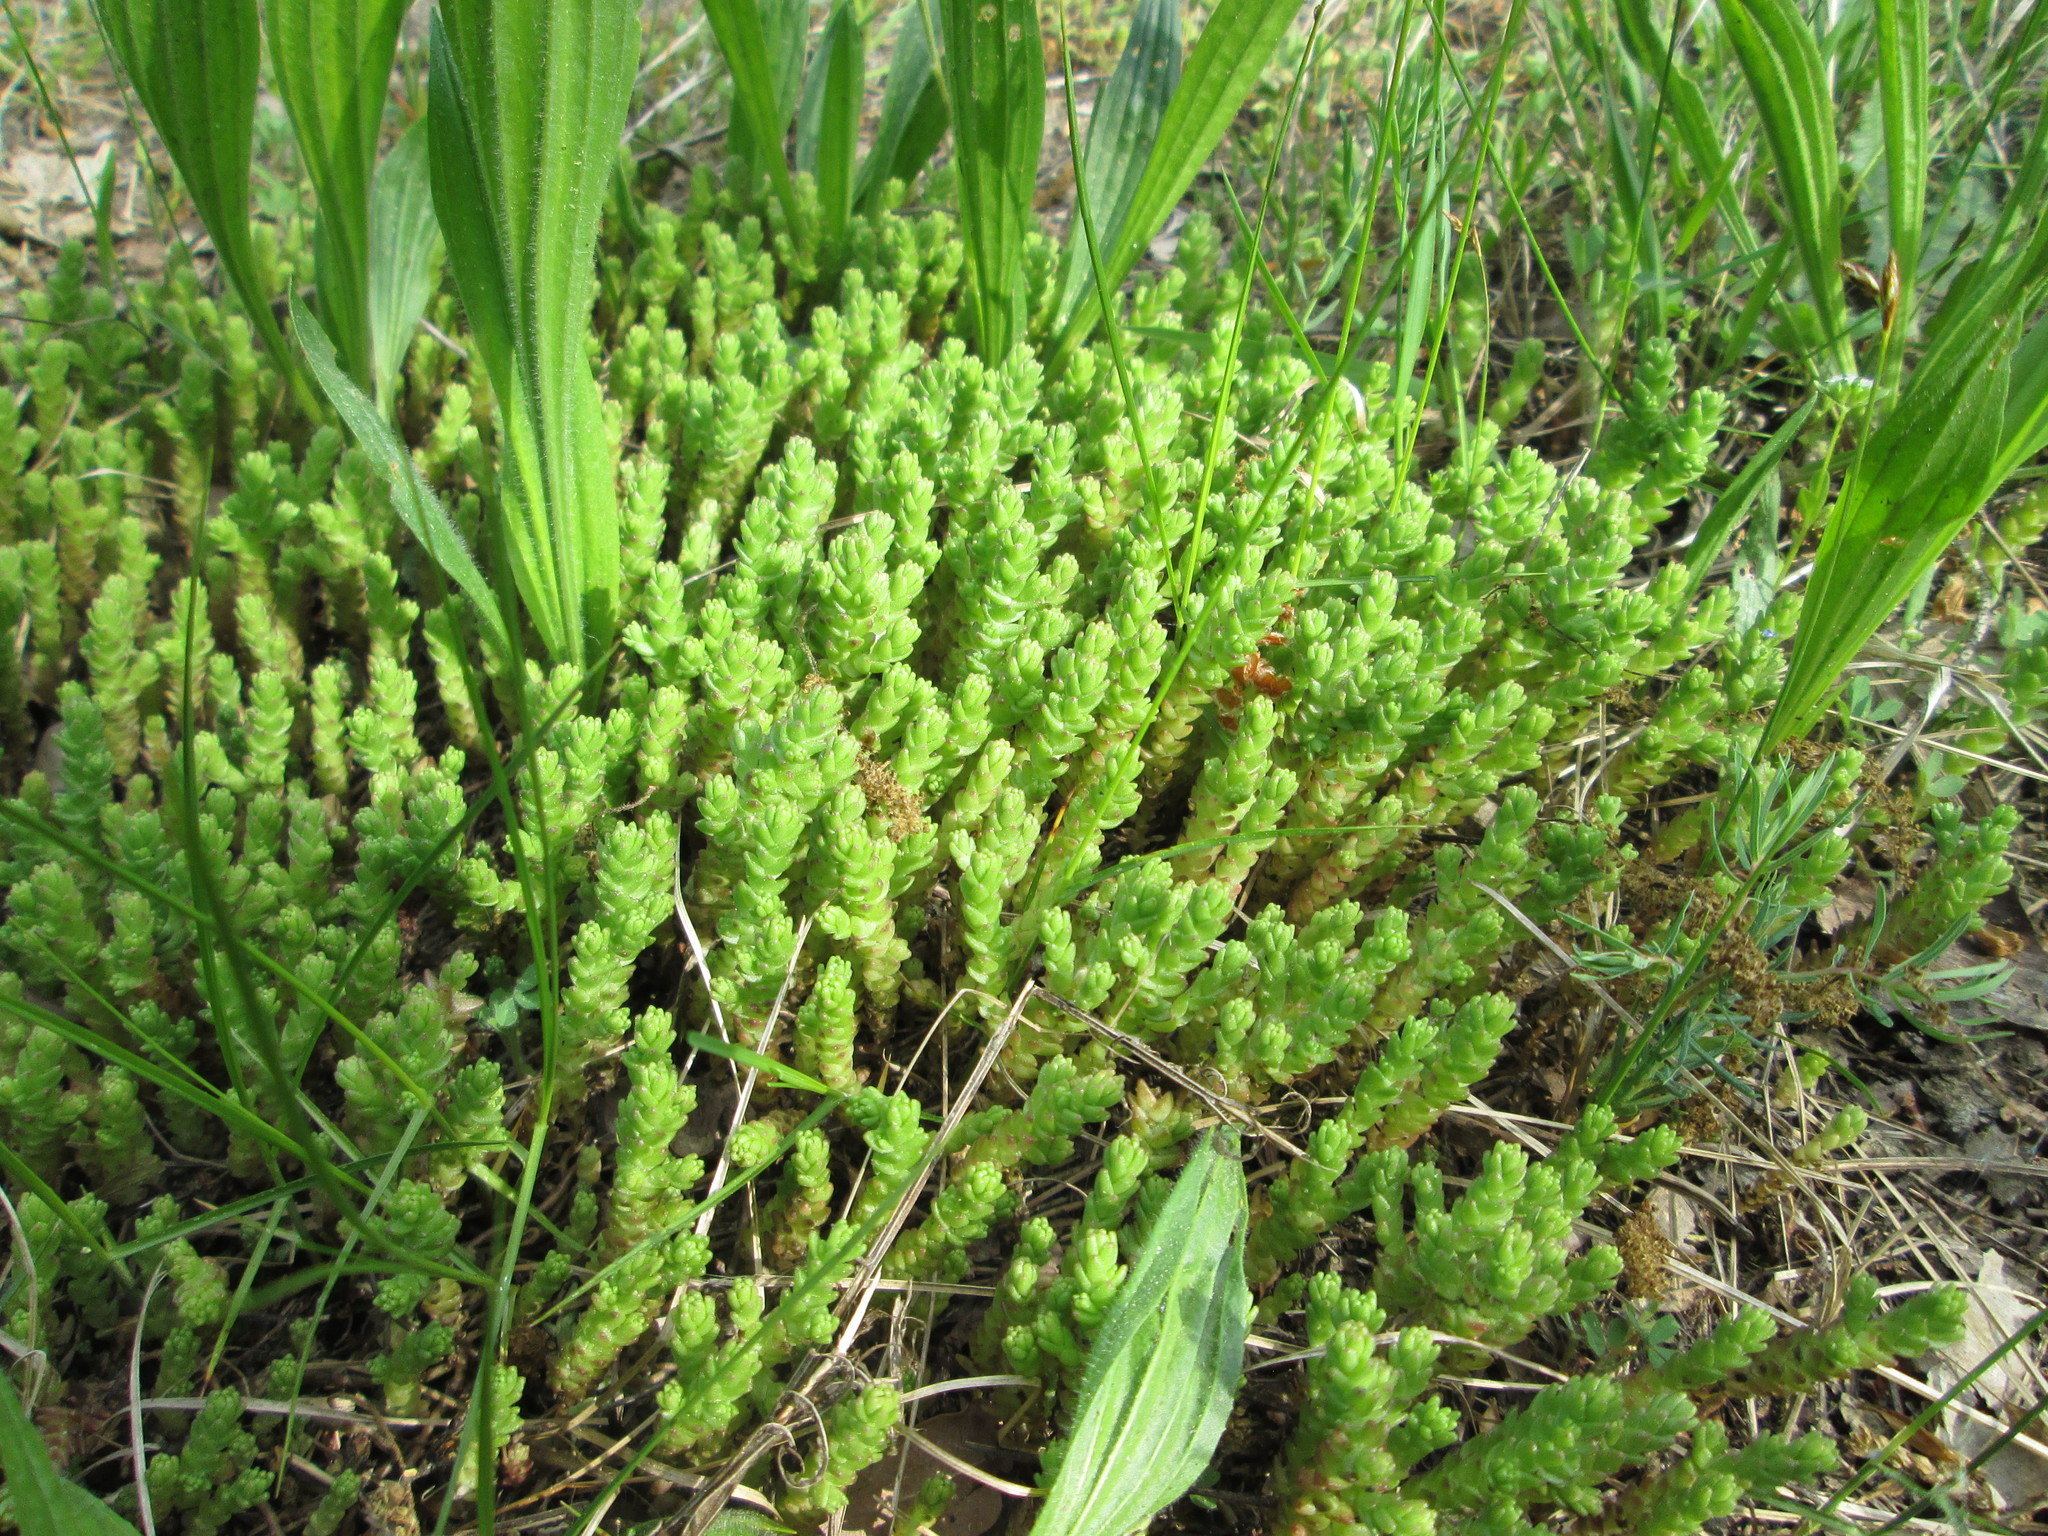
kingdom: Plantae
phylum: Tracheophyta
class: Magnoliopsida
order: Saxifragales
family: Crassulaceae
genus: Sedum
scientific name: Sedum acre
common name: Biting stonecrop
